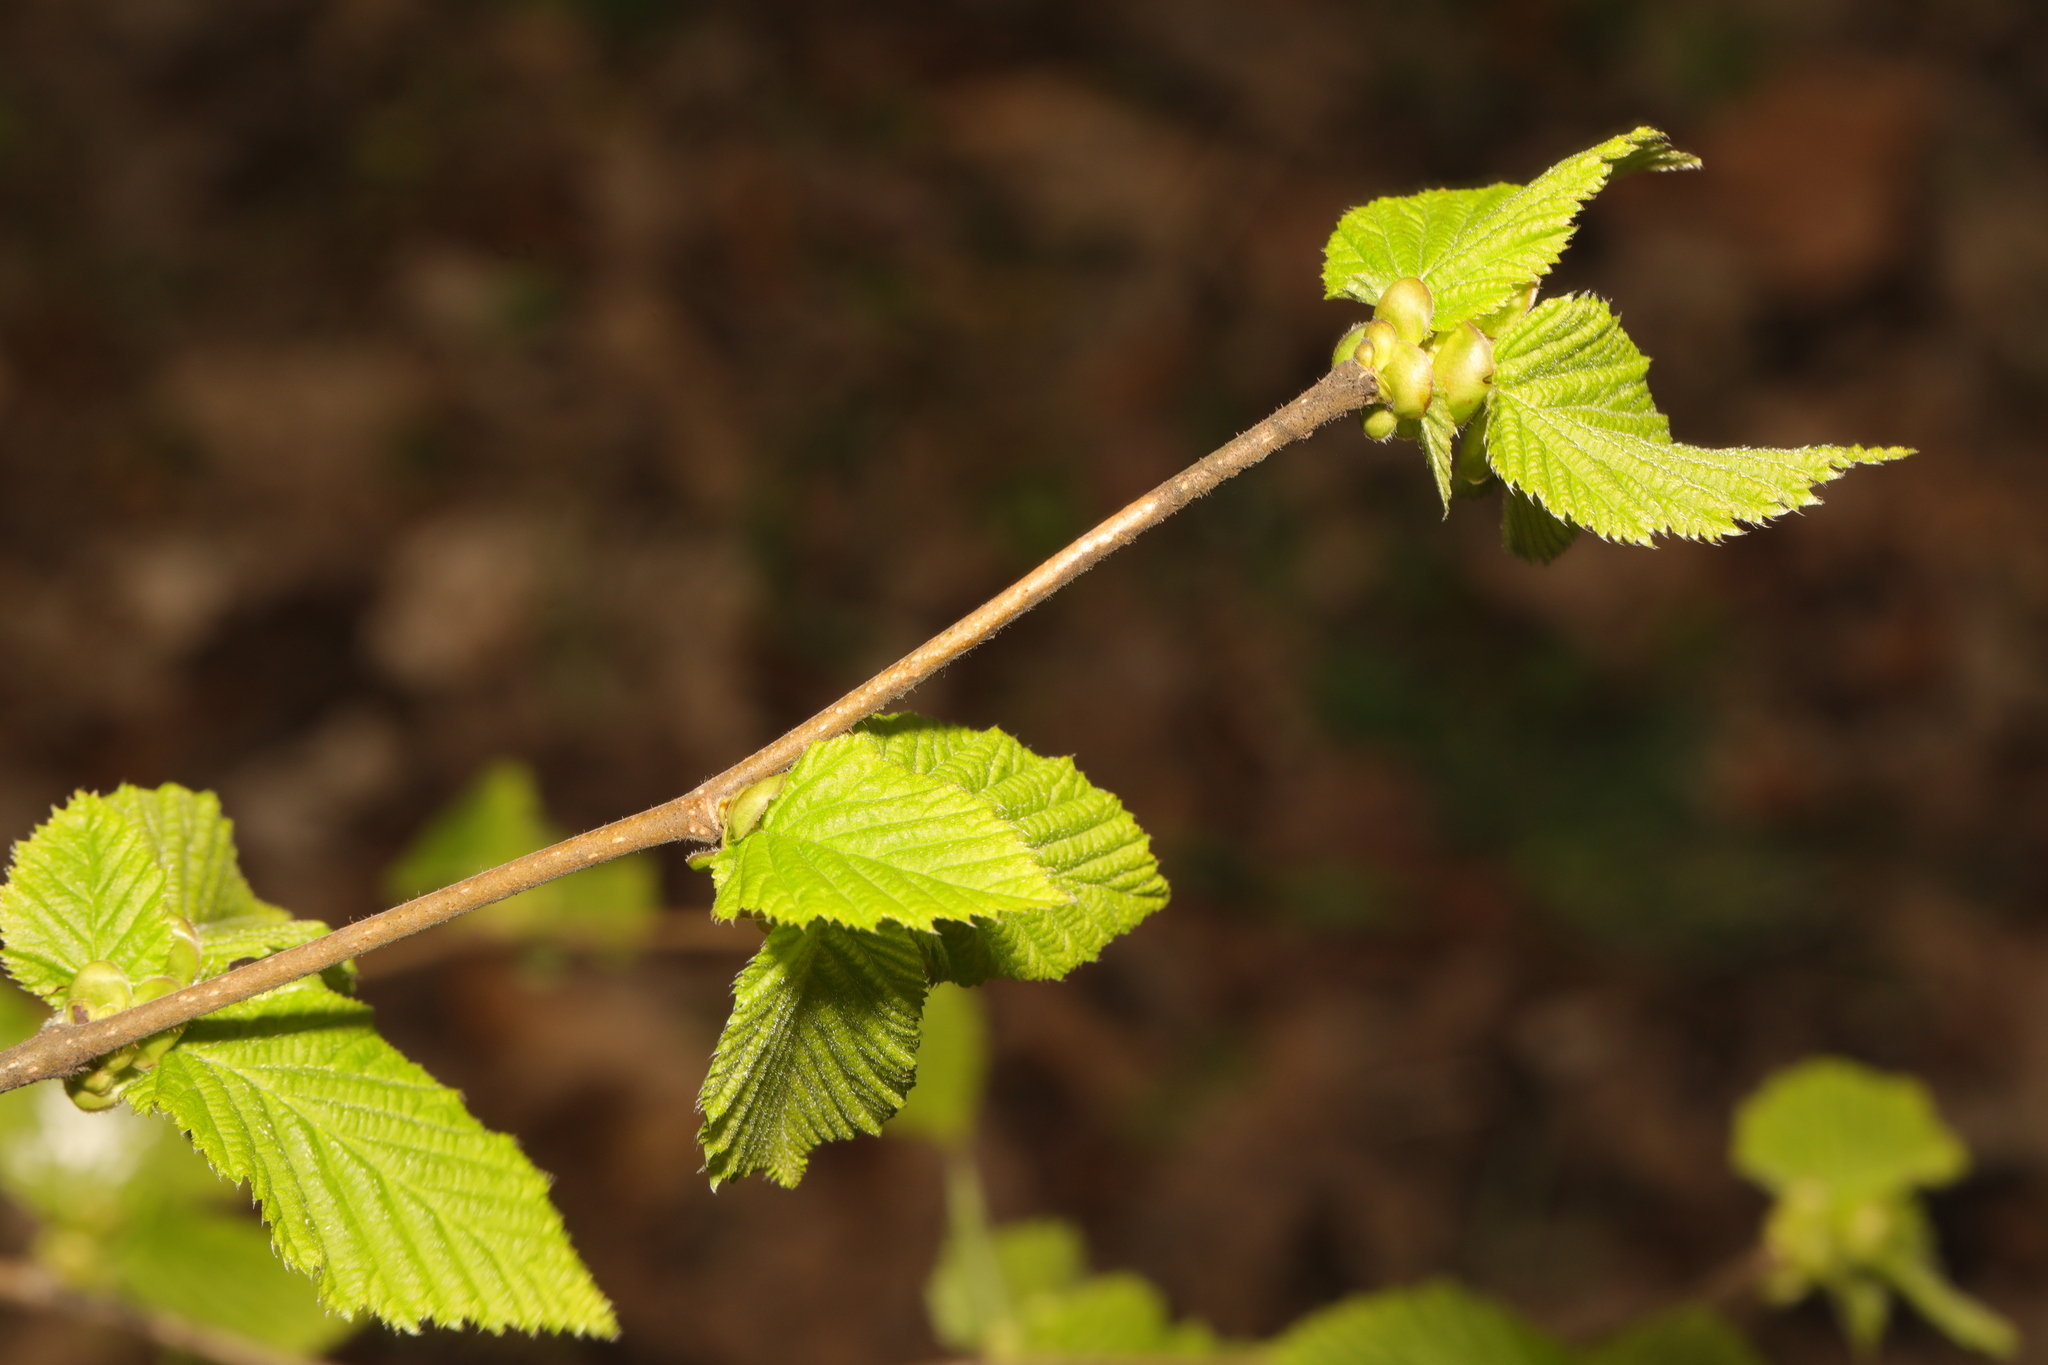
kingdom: Plantae
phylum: Tracheophyta
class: Magnoliopsida
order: Fagales
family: Betulaceae
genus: Corylus
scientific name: Corylus avellana
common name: European hazel
